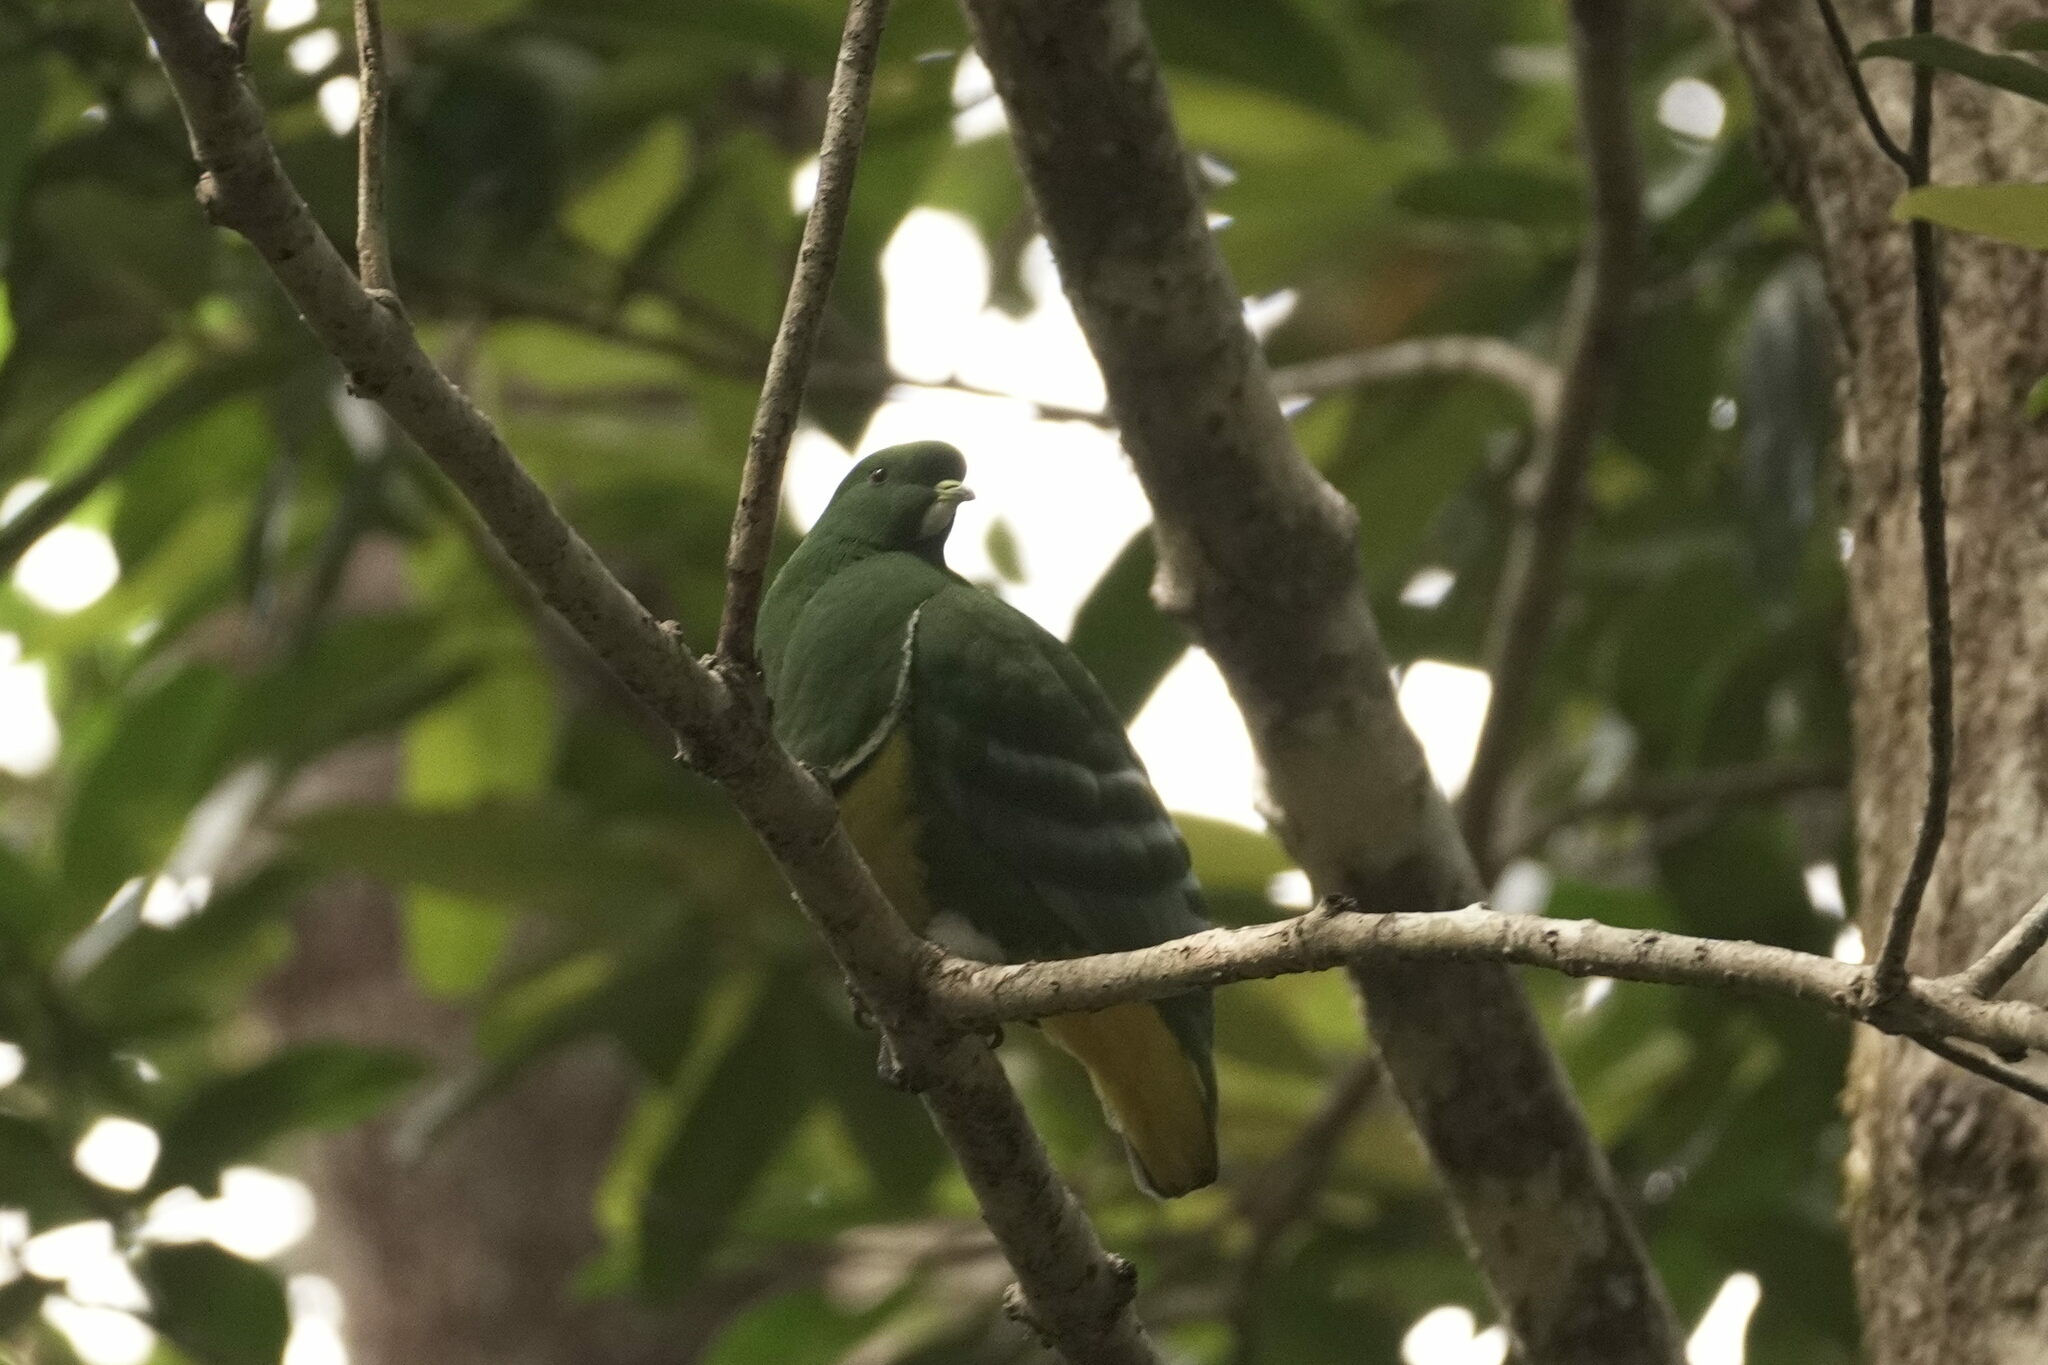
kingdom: Animalia
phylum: Chordata
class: Aves
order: Columbiformes
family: Columbidae
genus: Drepanoptila
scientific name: Drepanoptila holosericea
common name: Cloven-feathered dove
